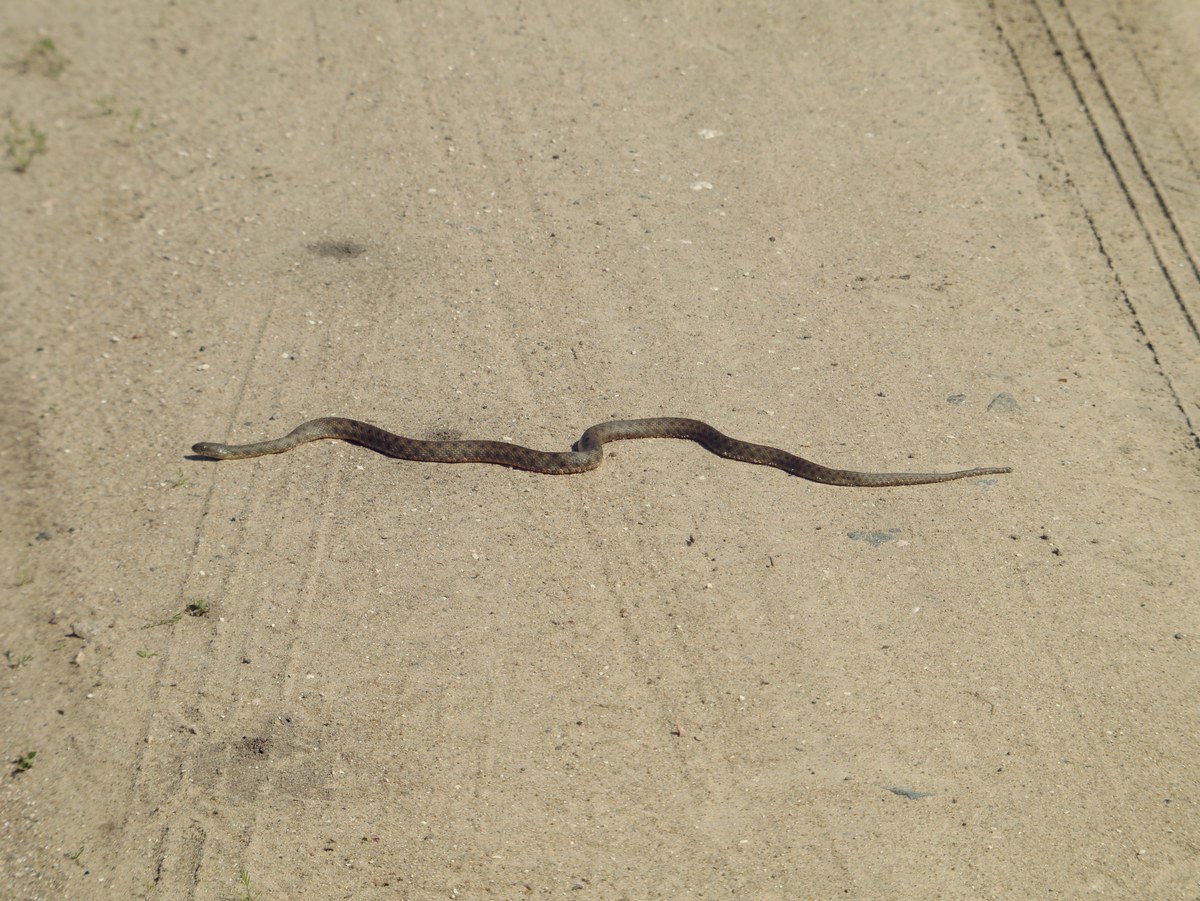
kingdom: Animalia
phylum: Chordata
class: Squamata
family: Colubridae
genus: Natrix
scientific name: Natrix tessellata
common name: Dice snake
